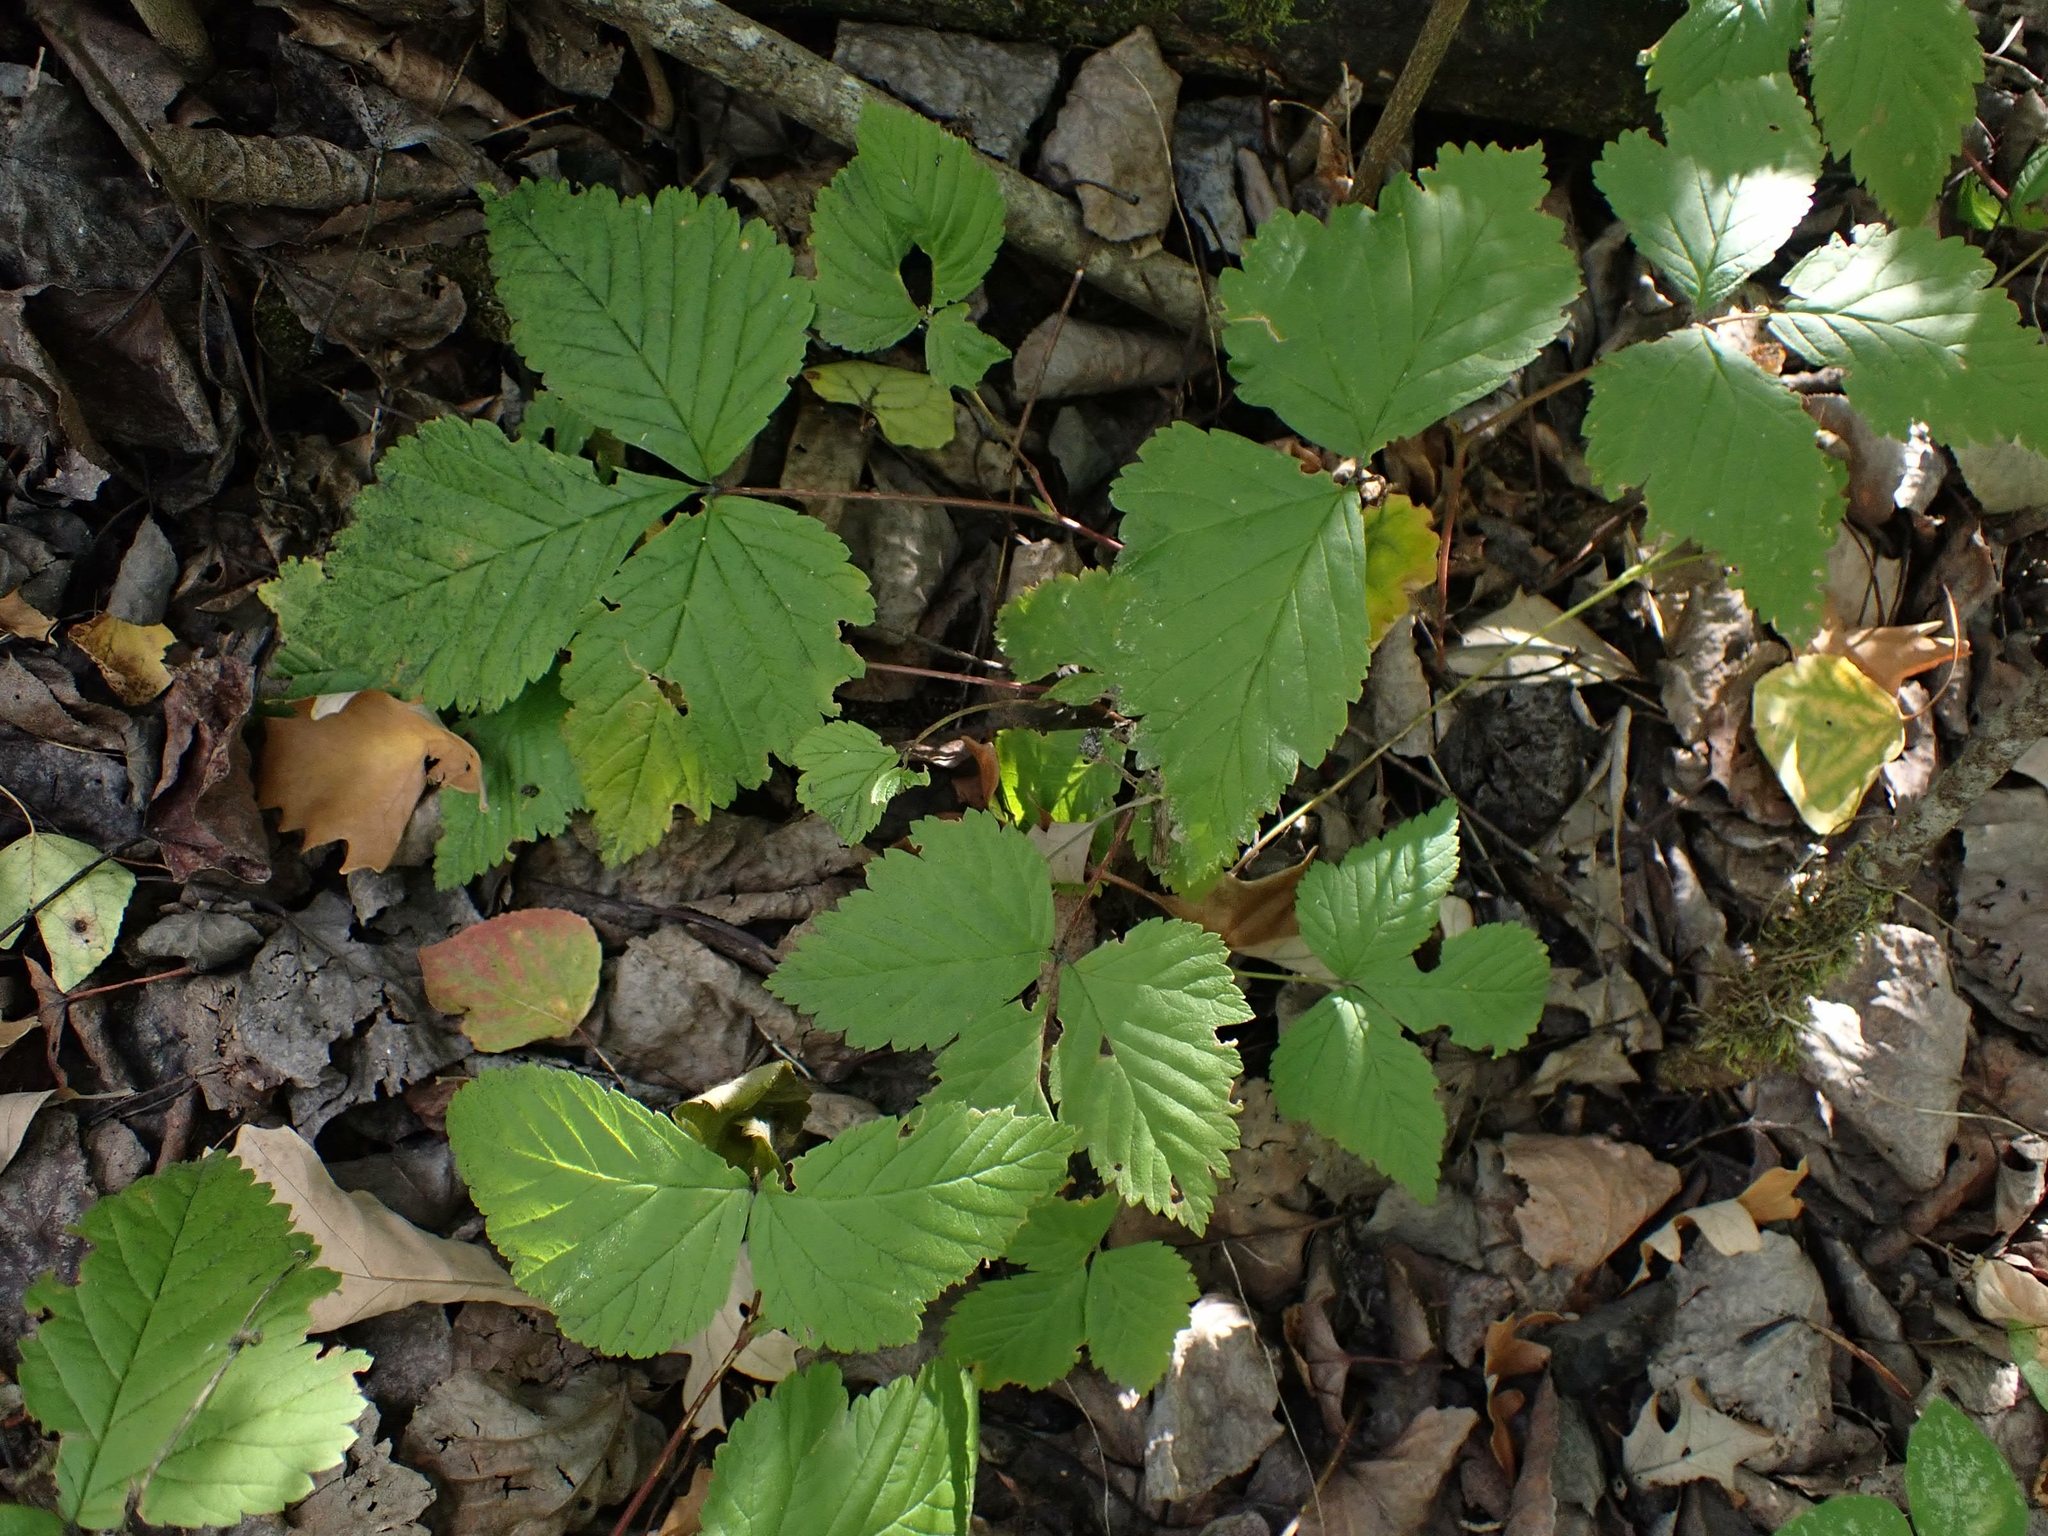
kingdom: Plantae
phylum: Tracheophyta
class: Magnoliopsida
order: Rosales
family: Rosaceae
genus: Rubus
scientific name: Rubus pubescens
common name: Dwarf raspberry
